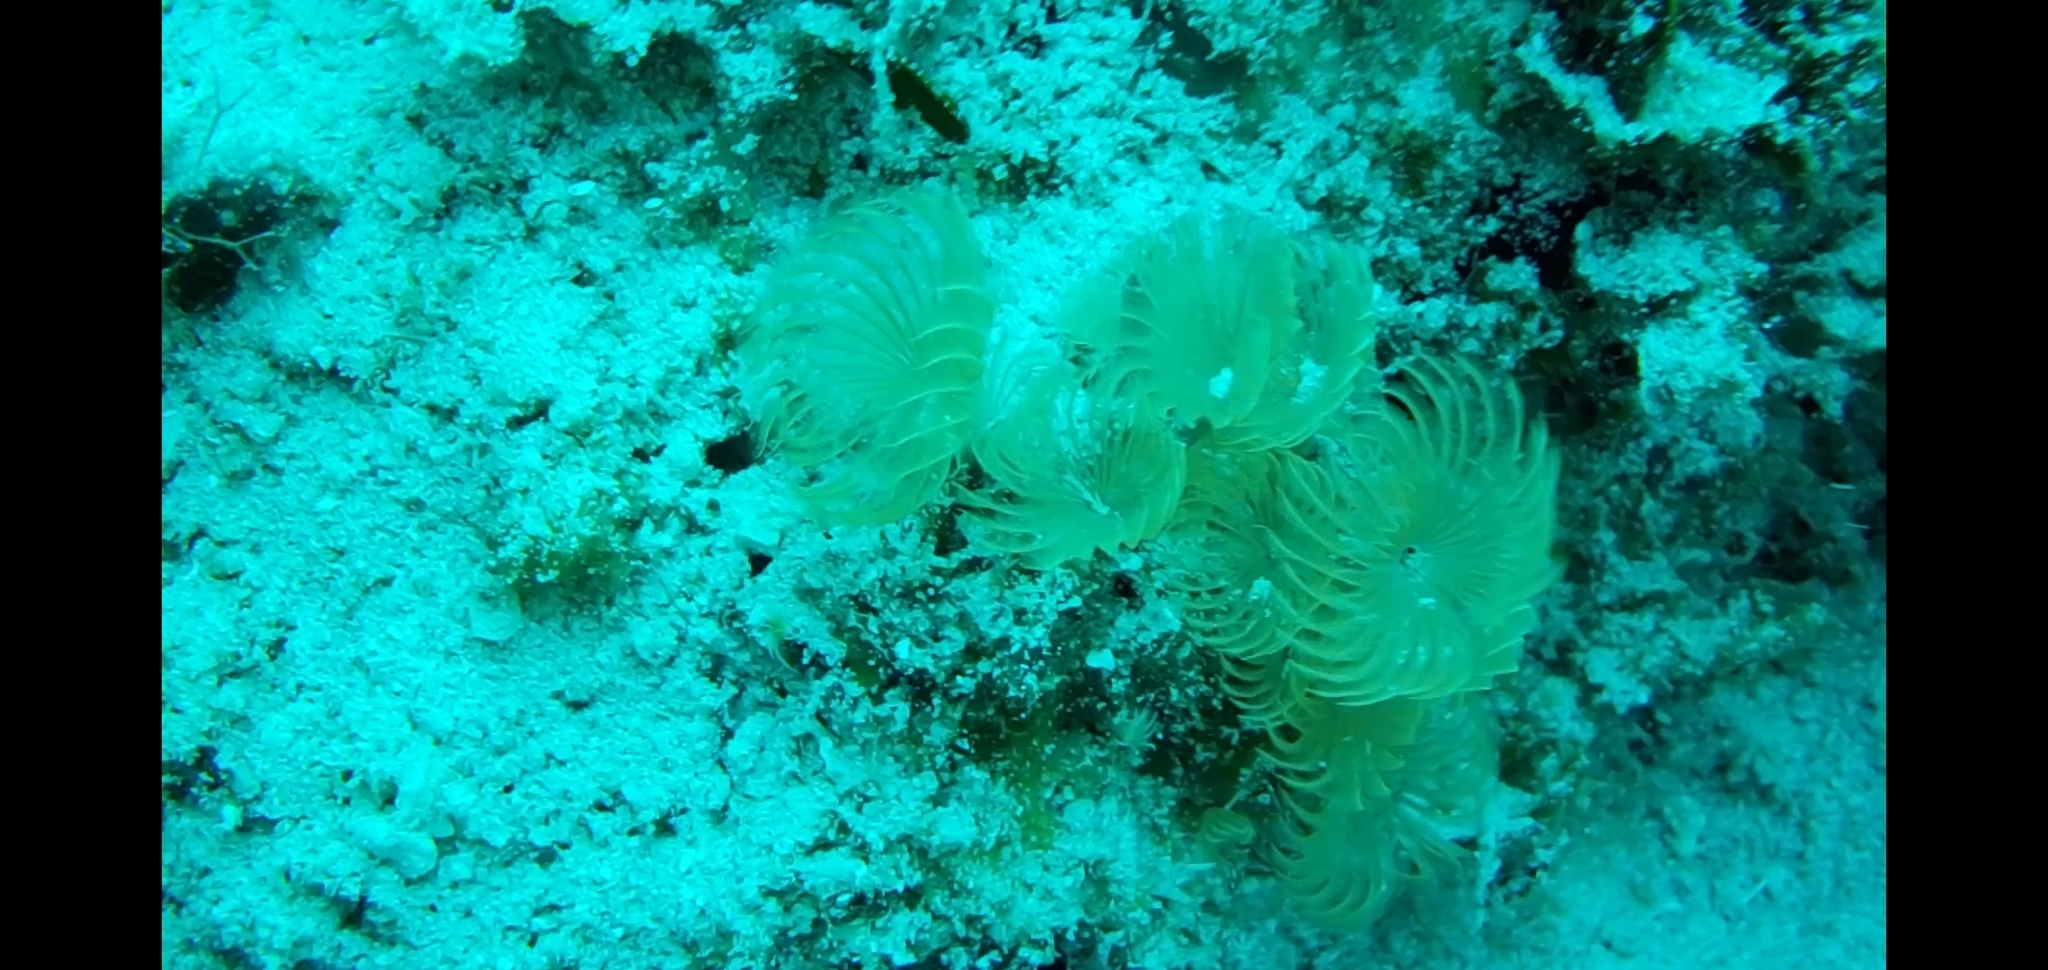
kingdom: Animalia
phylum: Annelida
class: Polychaeta
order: Sabellida
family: Sabellidae
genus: Bispira
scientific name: Bispira brunnea
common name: Social feather duster
